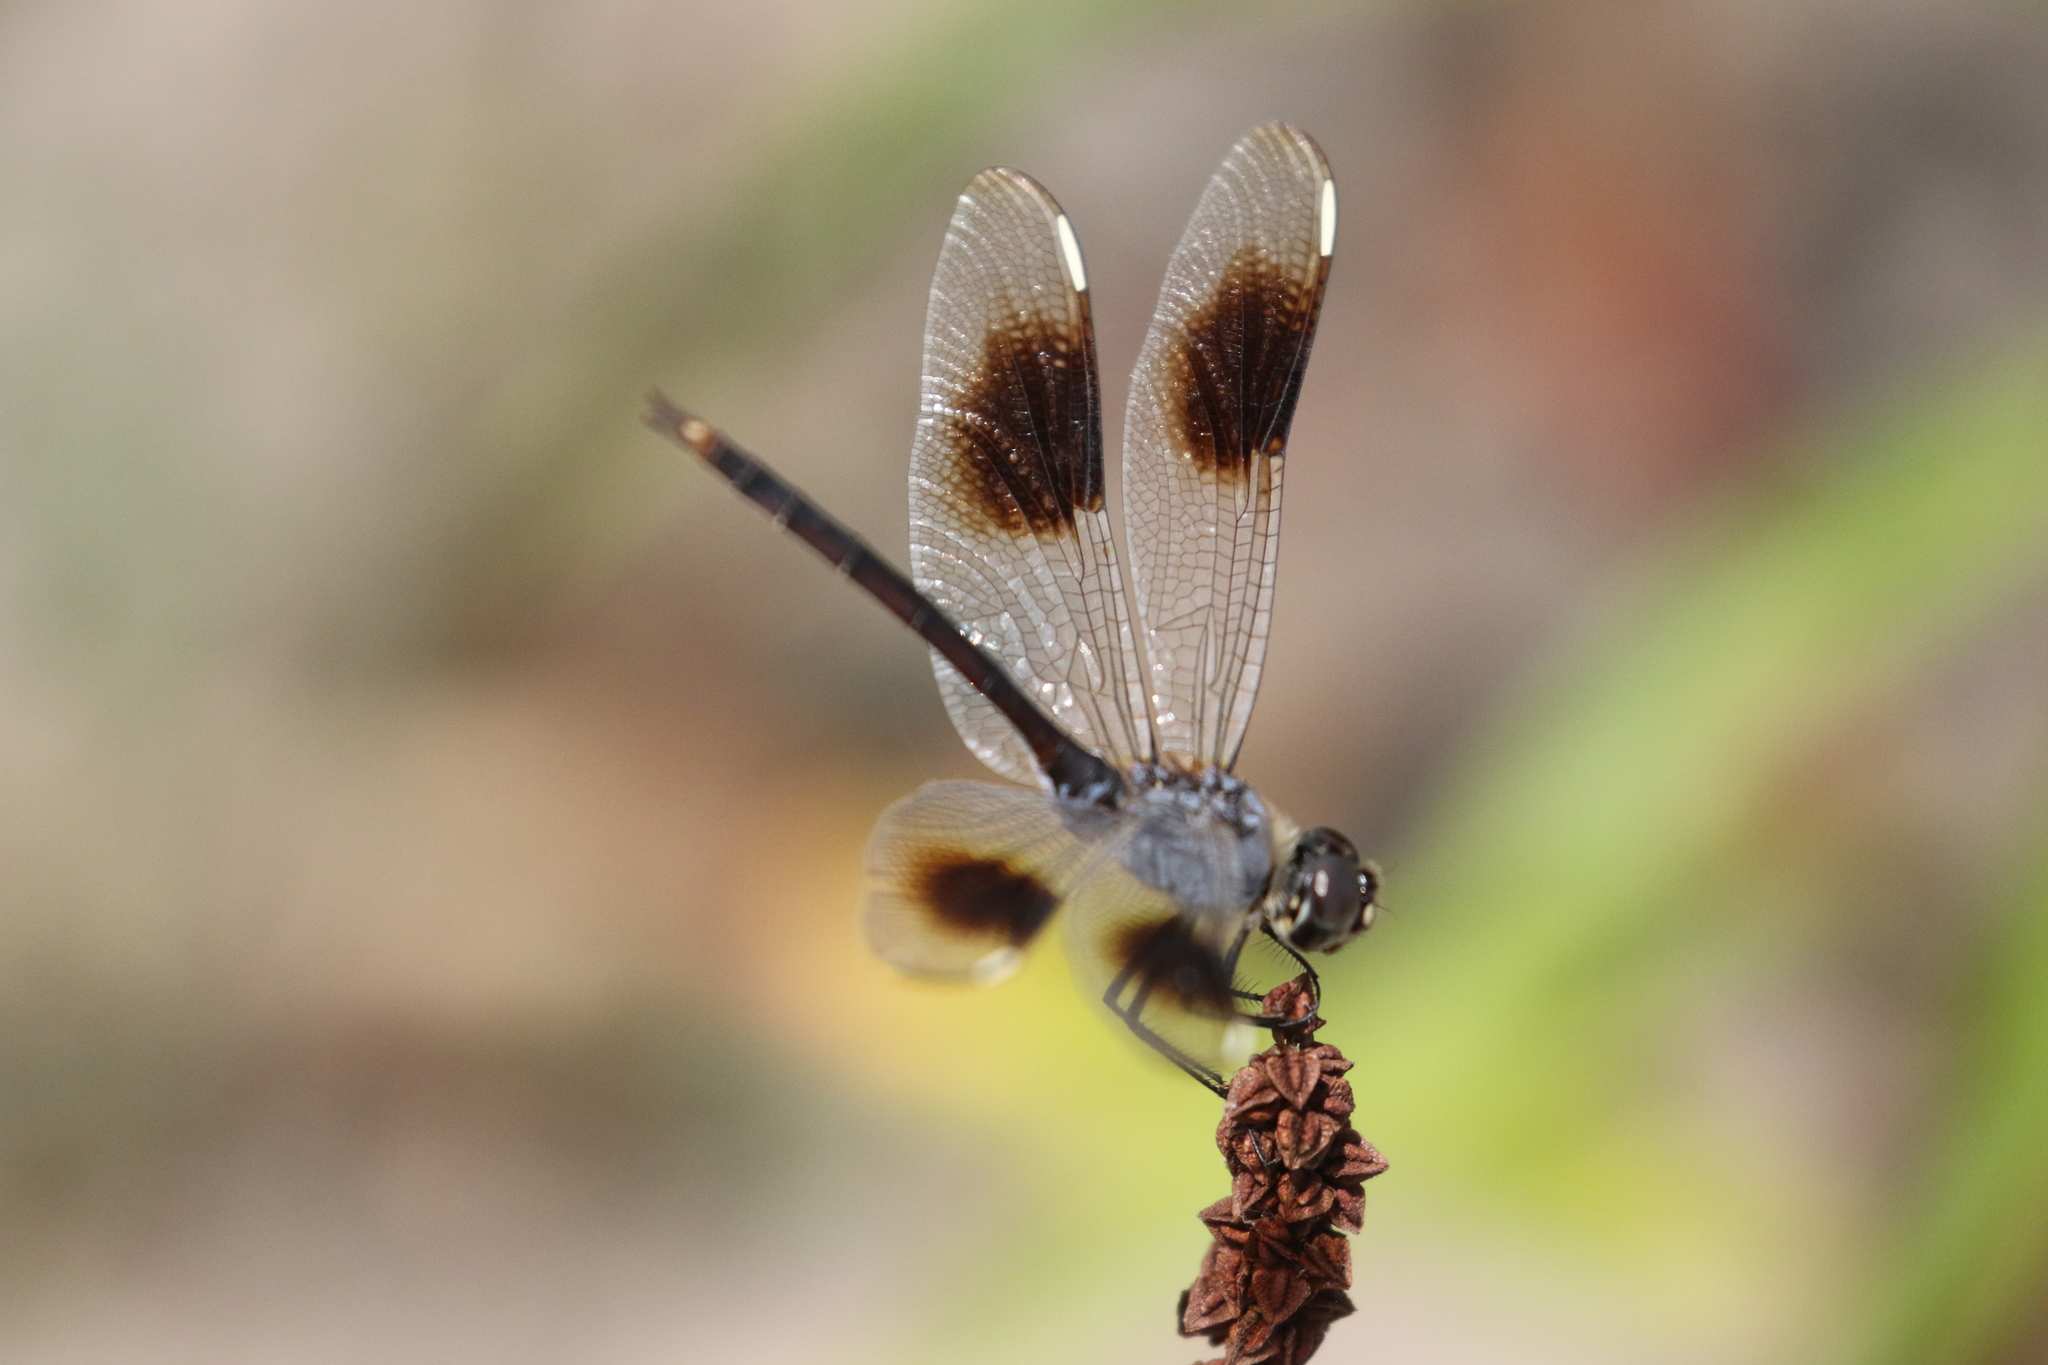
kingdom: Animalia
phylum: Arthropoda
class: Insecta
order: Odonata
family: Libellulidae
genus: Brachymesia
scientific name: Brachymesia gravida
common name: Four-spotted pennant
